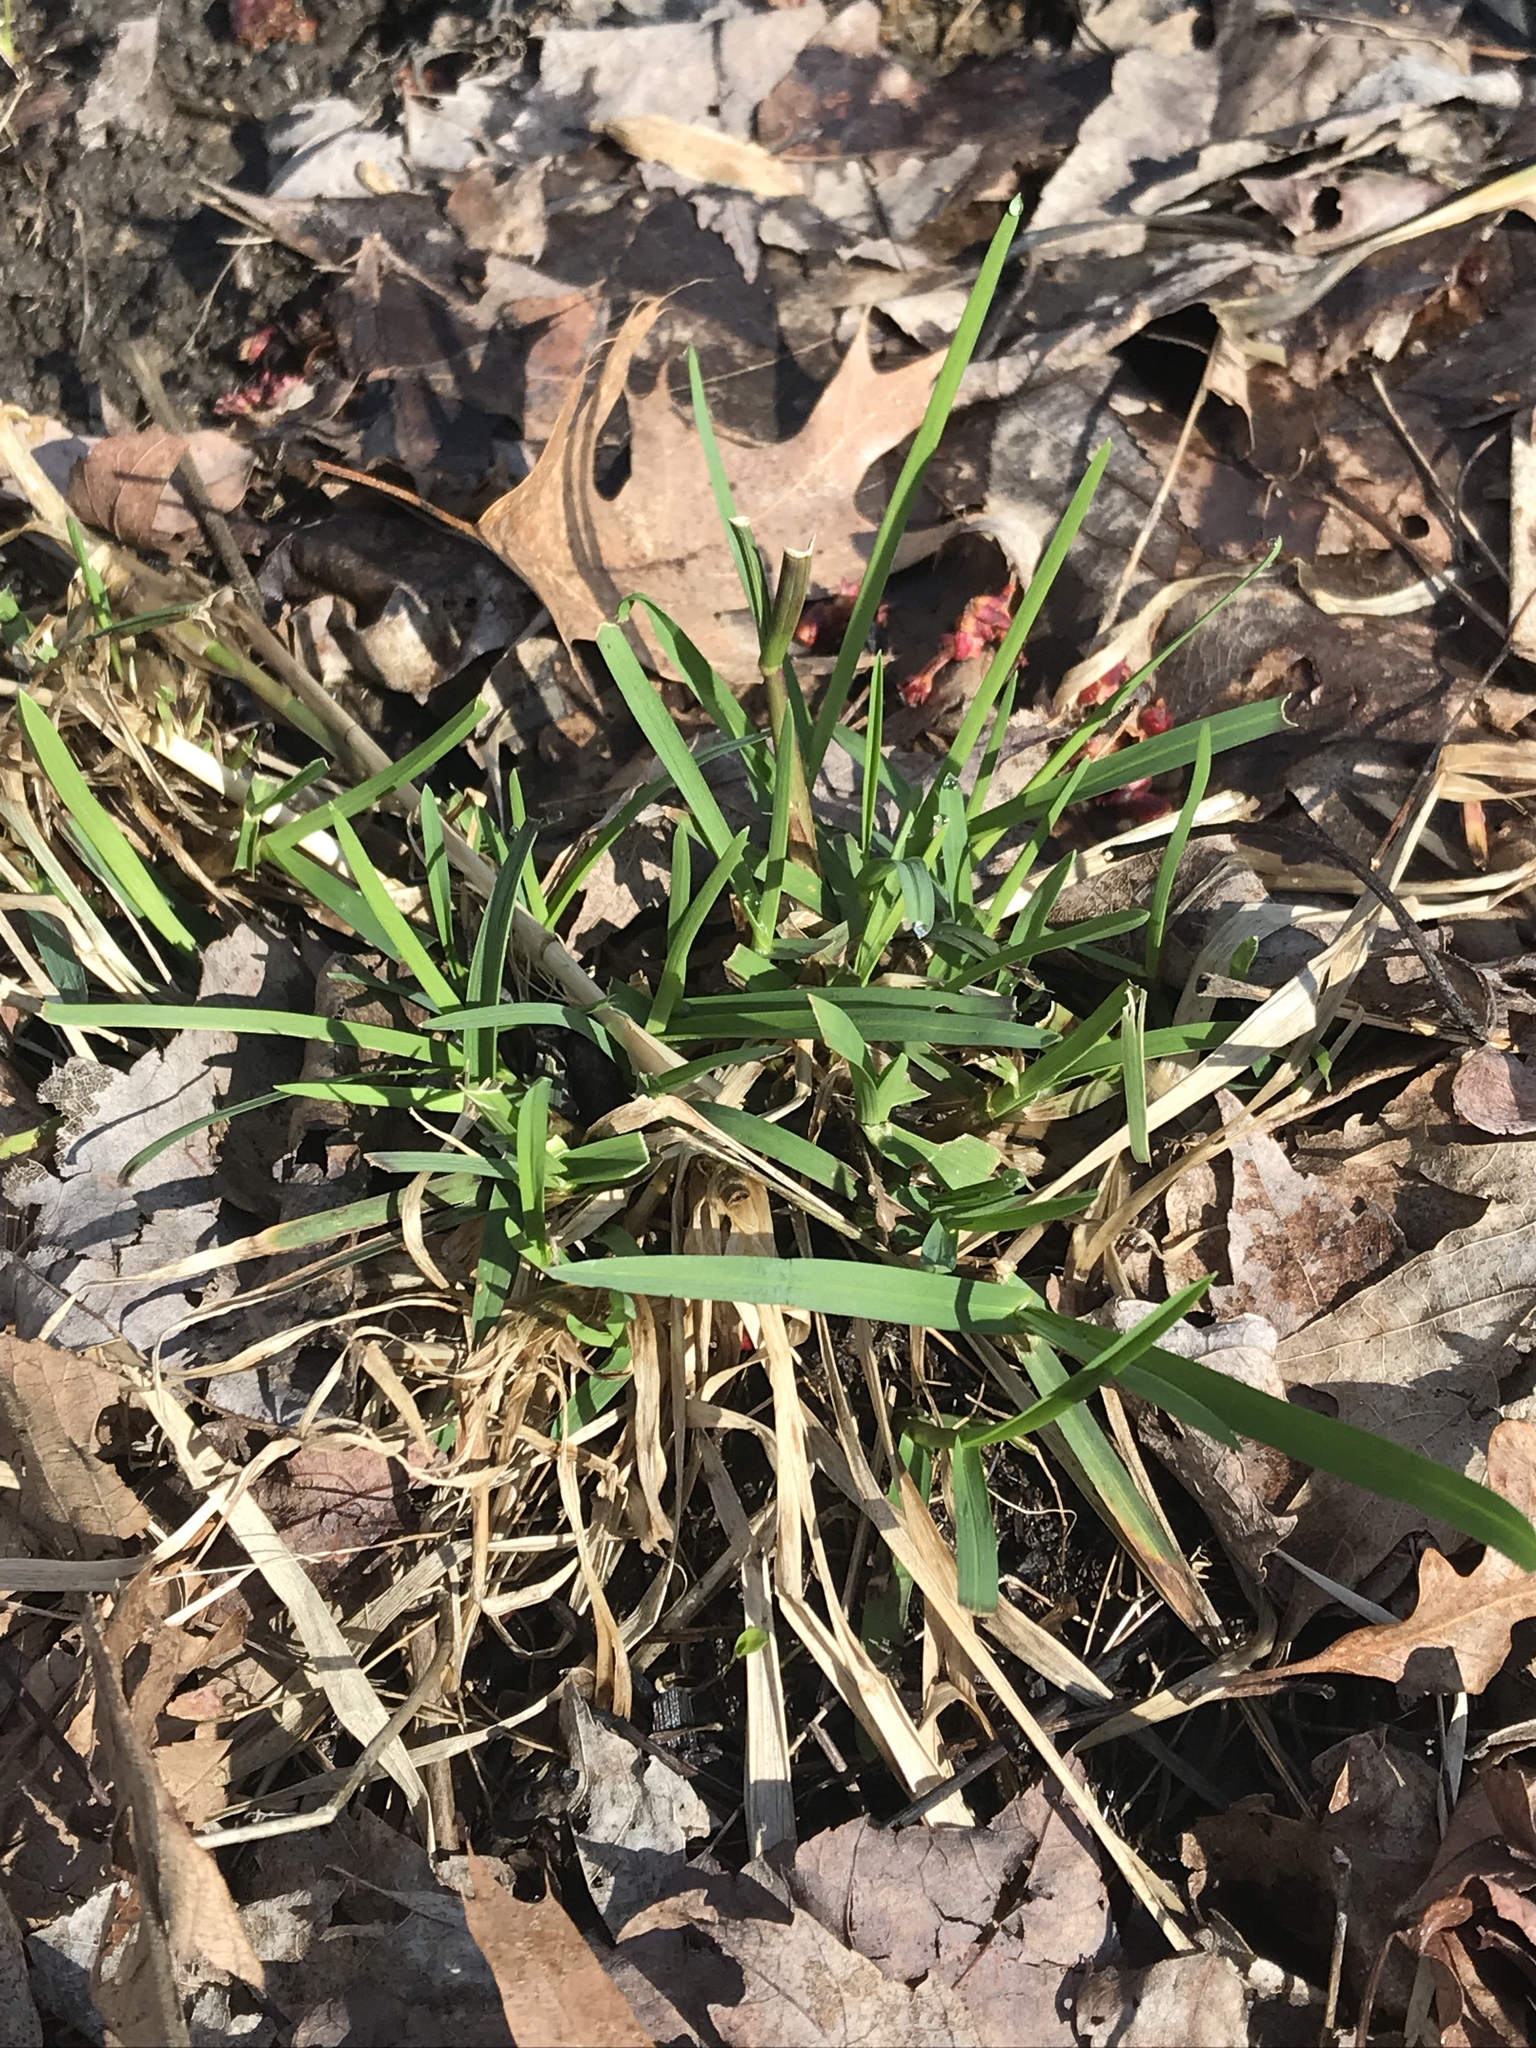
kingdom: Plantae
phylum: Tracheophyta
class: Liliopsida
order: Poales
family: Poaceae
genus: Poa
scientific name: Poa annua
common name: Annual bluegrass
